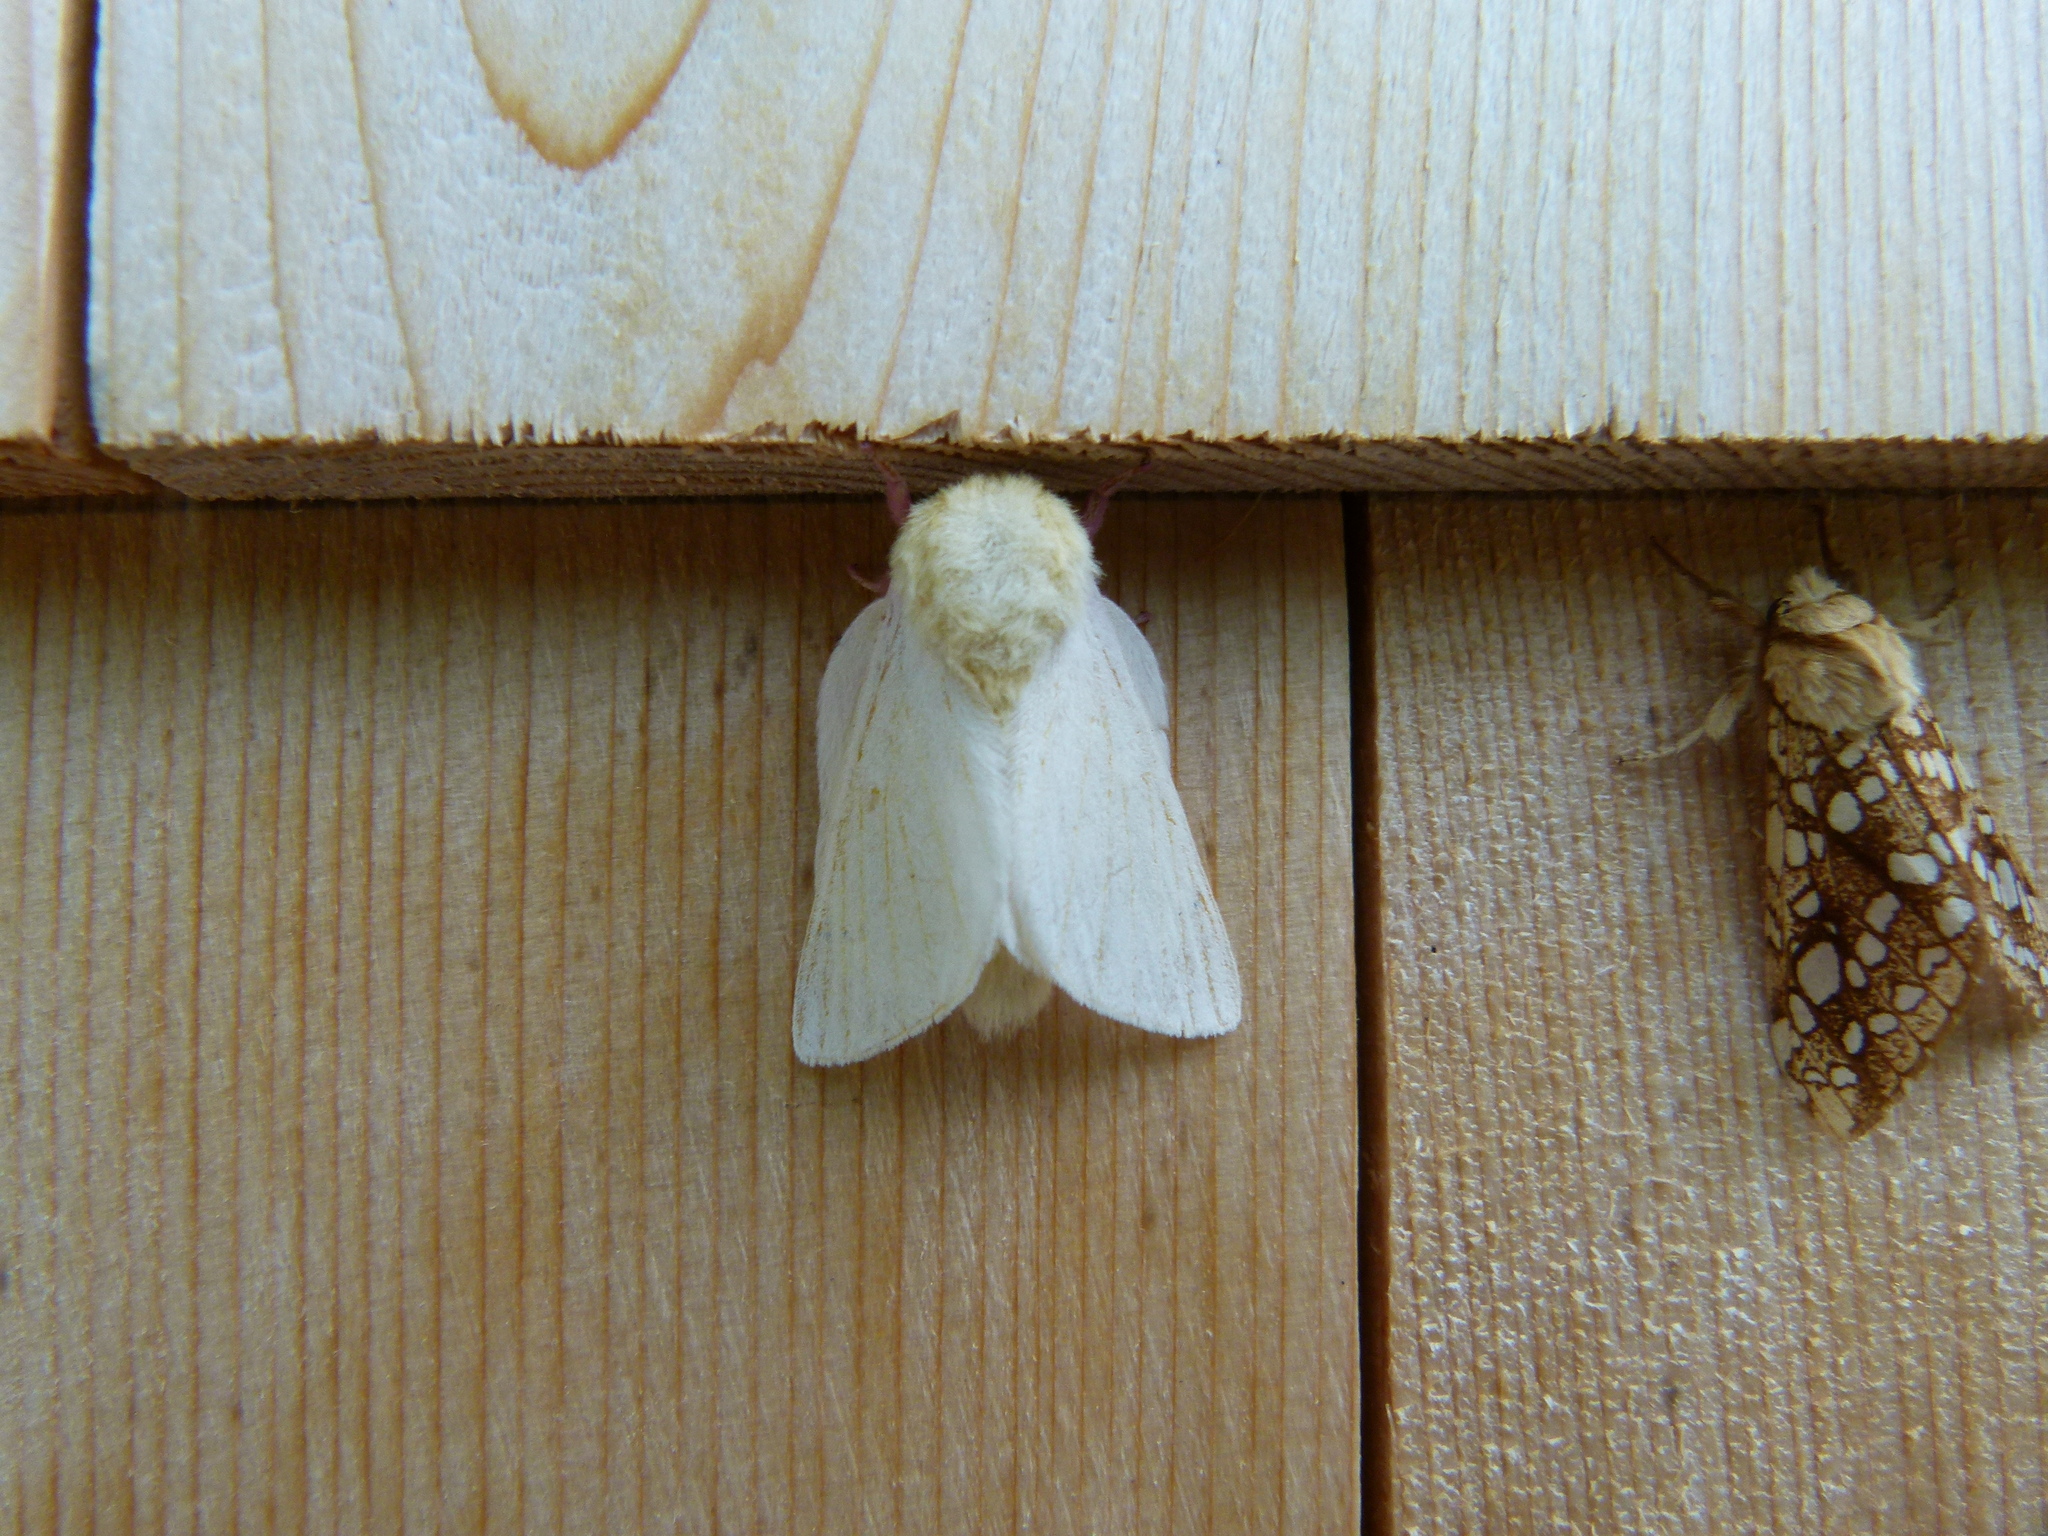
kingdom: Animalia
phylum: Arthropoda
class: Insecta
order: Lepidoptera
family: Saturniidae
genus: Dryocampa
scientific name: Dryocampa rubicunda
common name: Rosy maple moth
